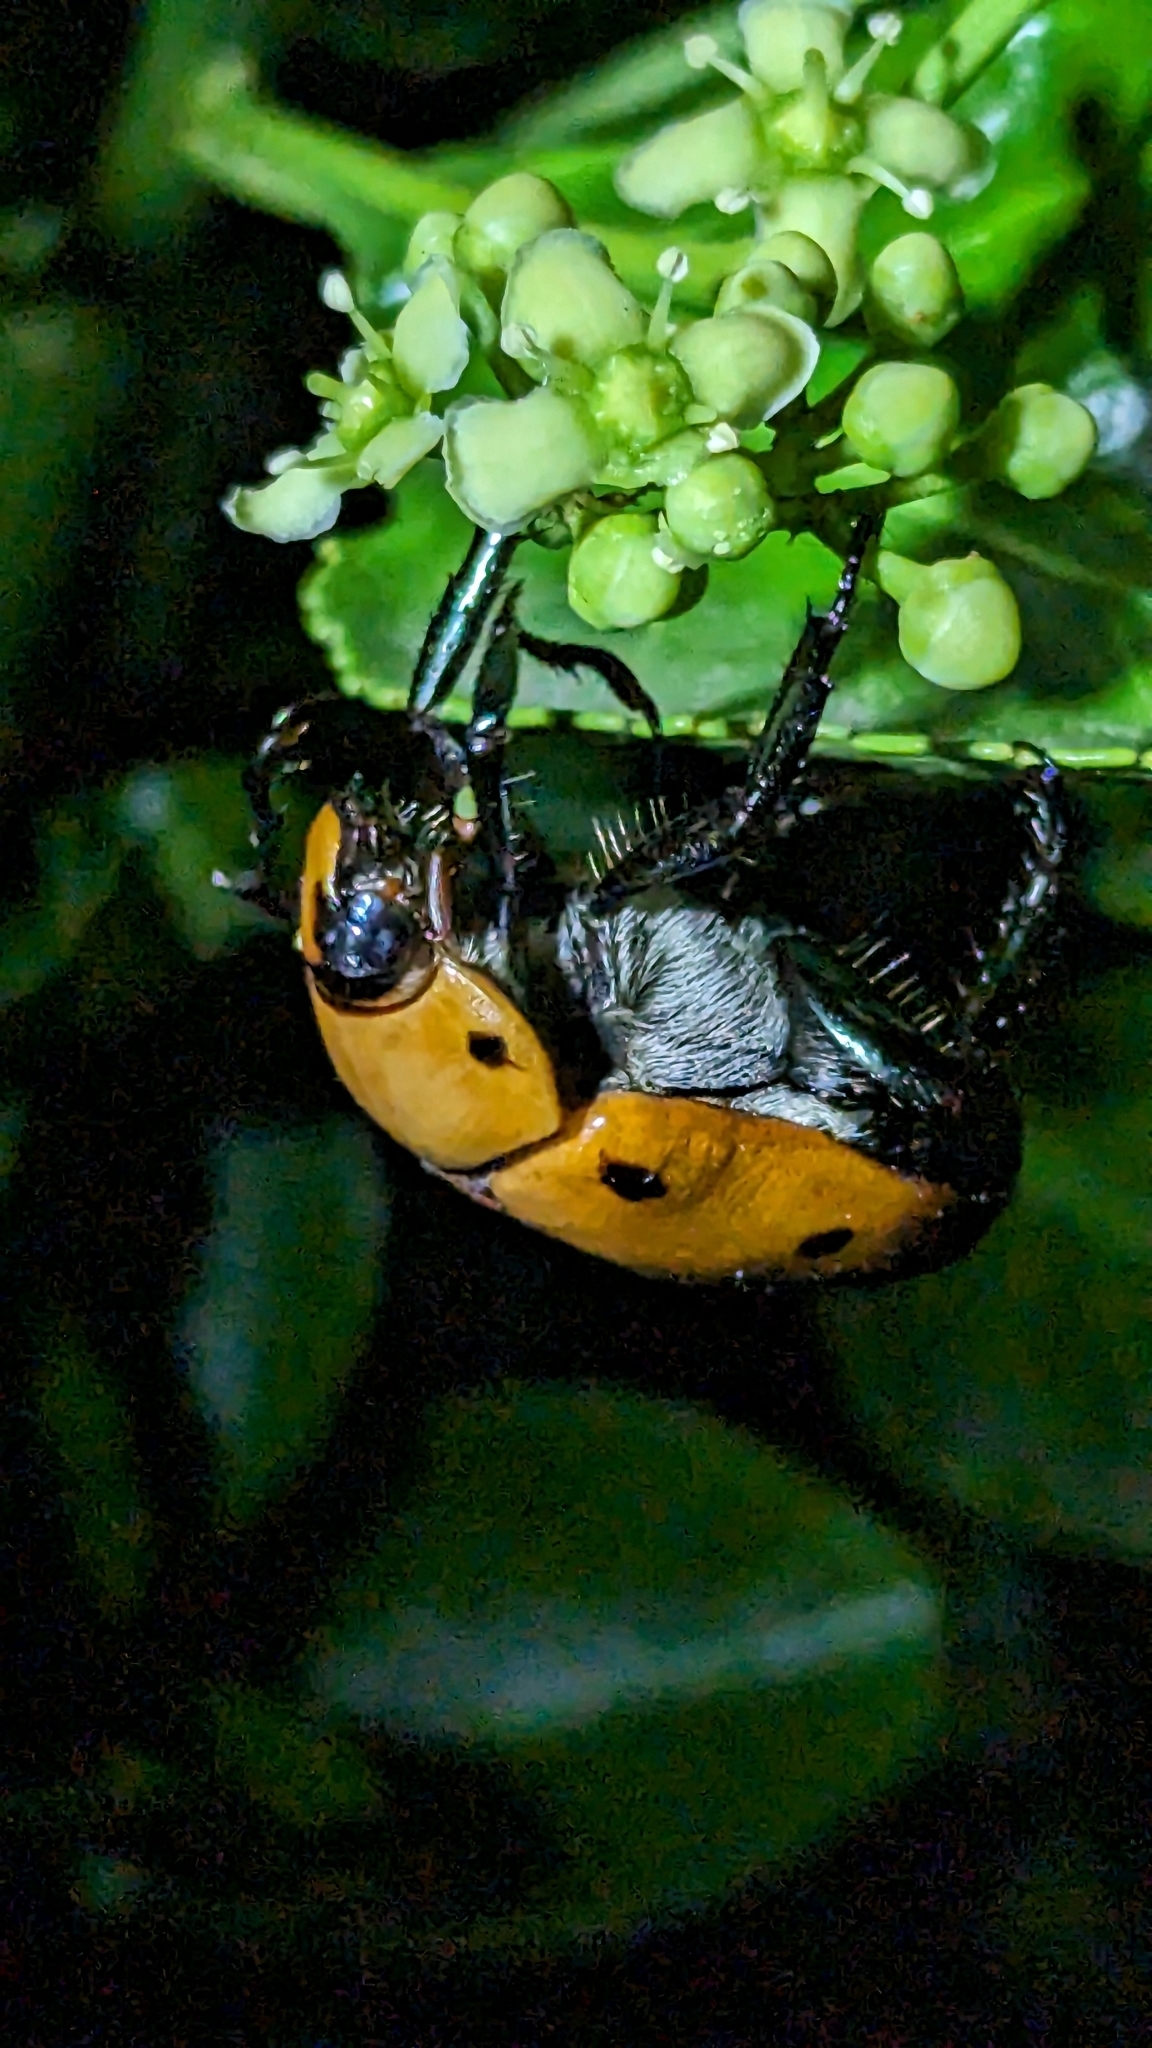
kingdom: Animalia
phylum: Arthropoda
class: Insecta
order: Coleoptera
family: Scarabaeidae
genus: Pelidnota
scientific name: Pelidnota punctata
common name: Grapevine beetle
